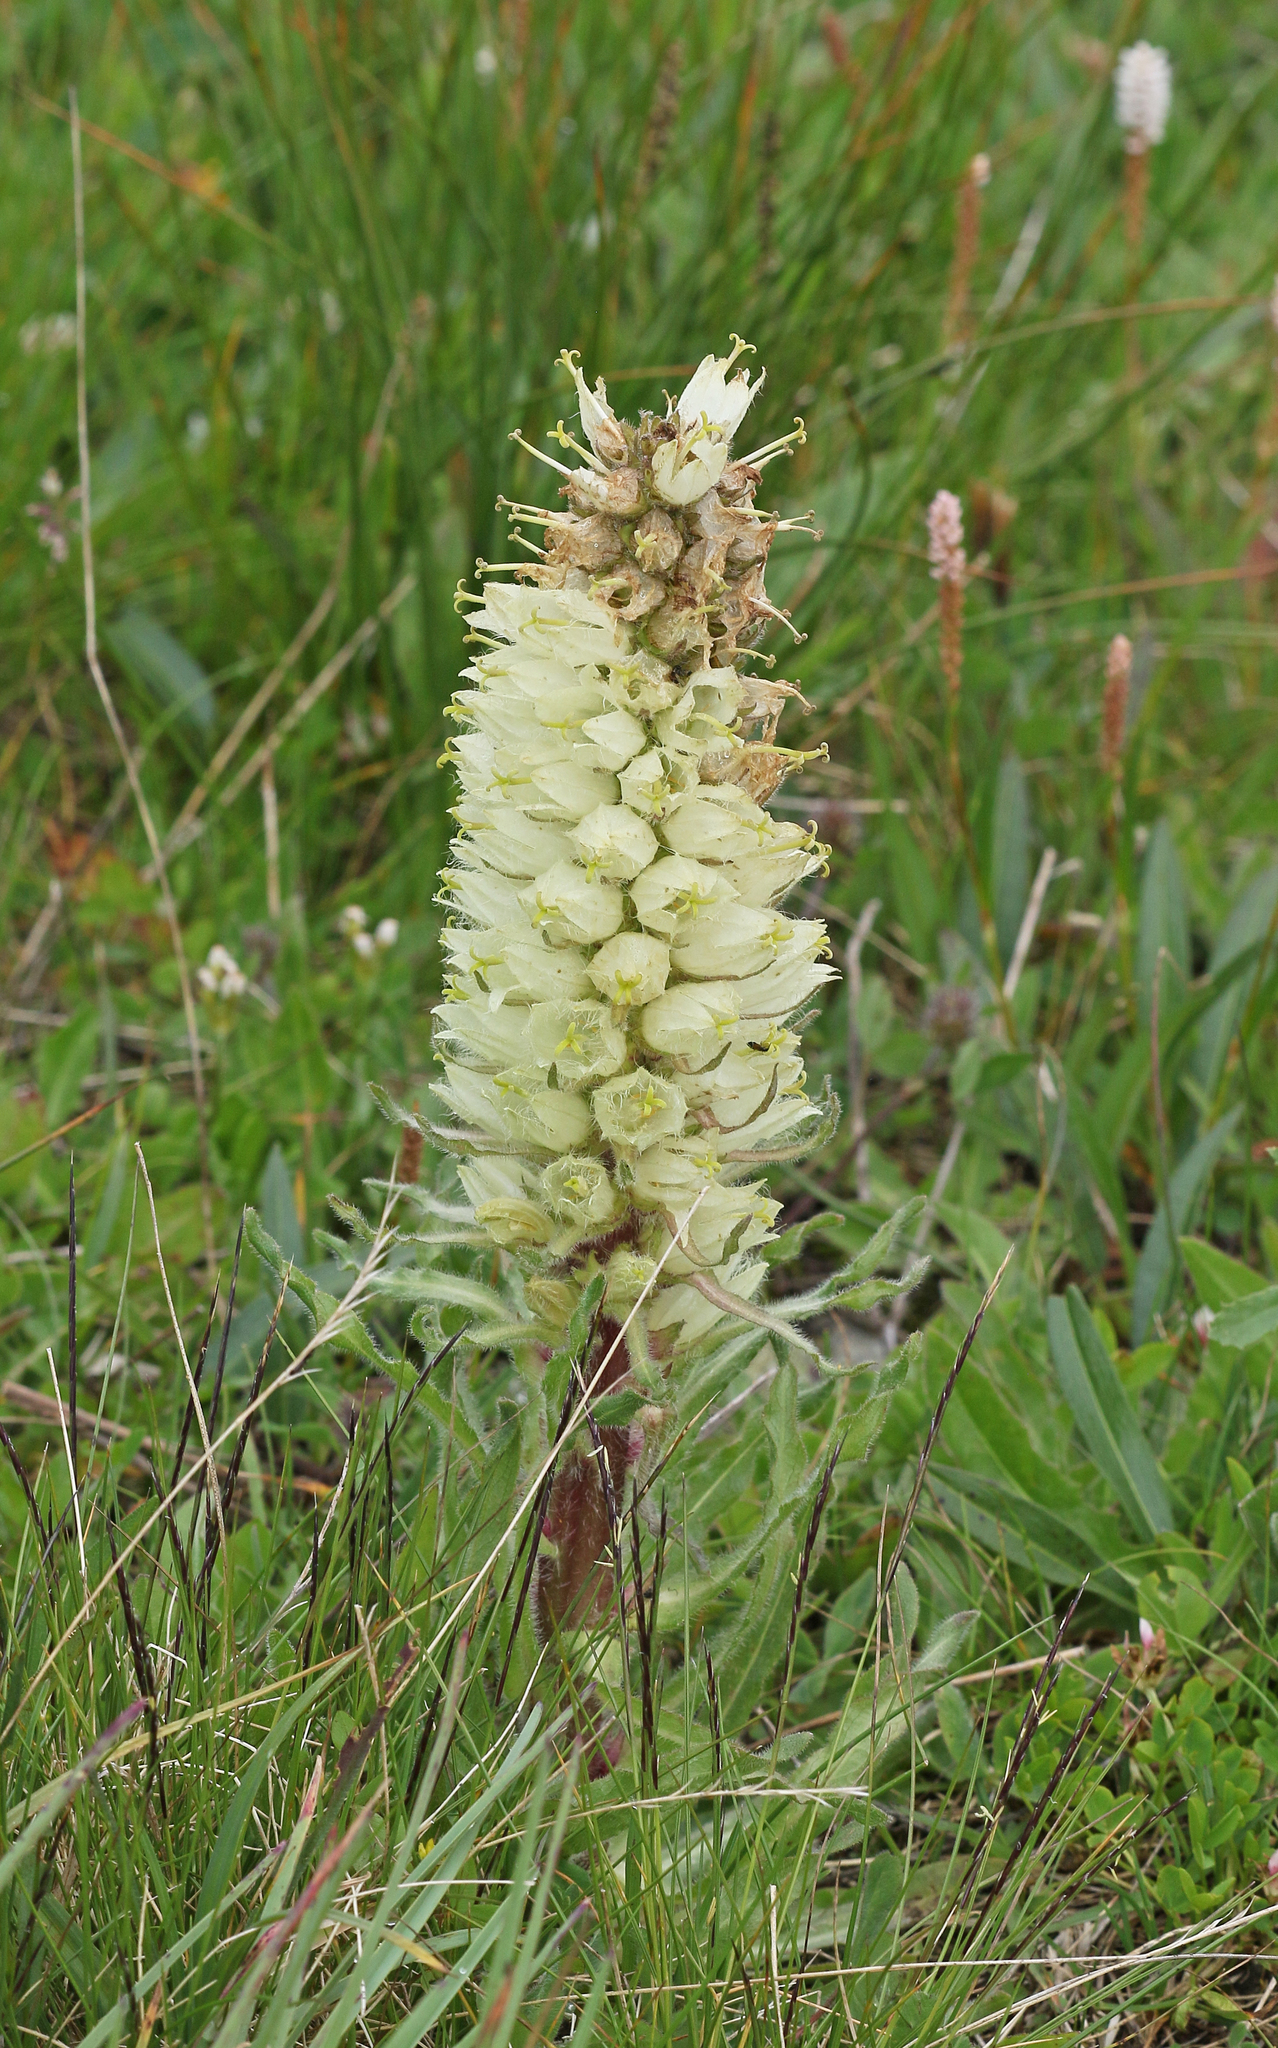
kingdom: Plantae
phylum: Tracheophyta
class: Magnoliopsida
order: Asterales
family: Campanulaceae
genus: Campanula
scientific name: Campanula thyrsoides
